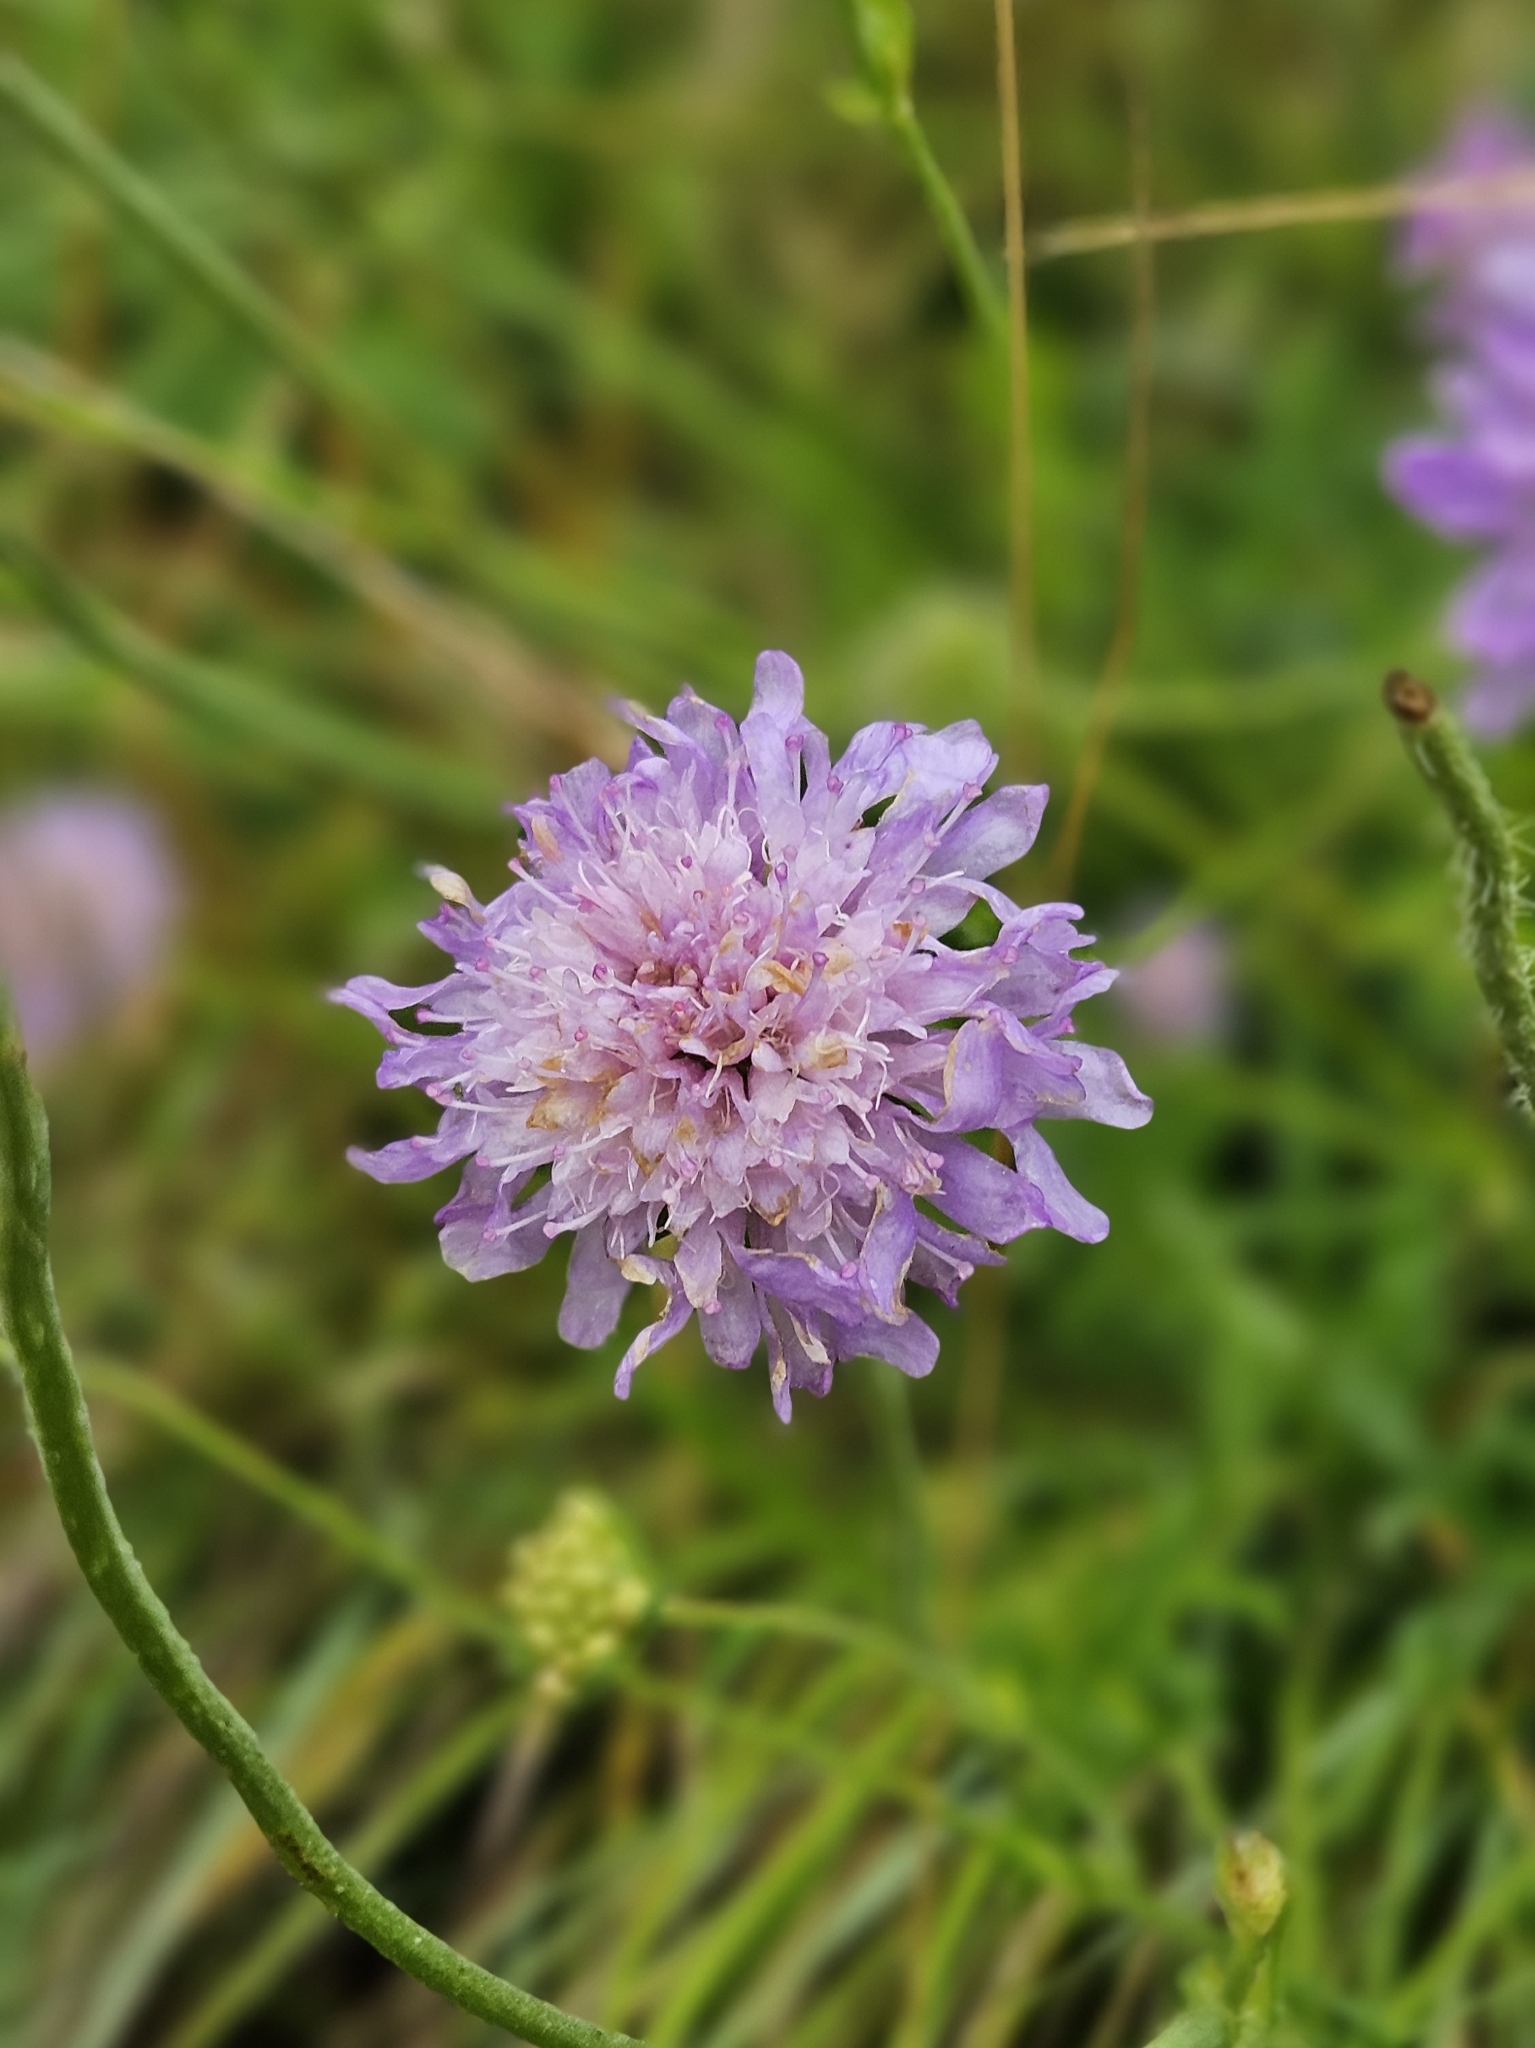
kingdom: Plantae
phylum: Tracheophyta
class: Magnoliopsida
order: Dipsacales
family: Caprifoliaceae
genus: Knautia
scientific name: Knautia arvensis
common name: Field scabiosa
